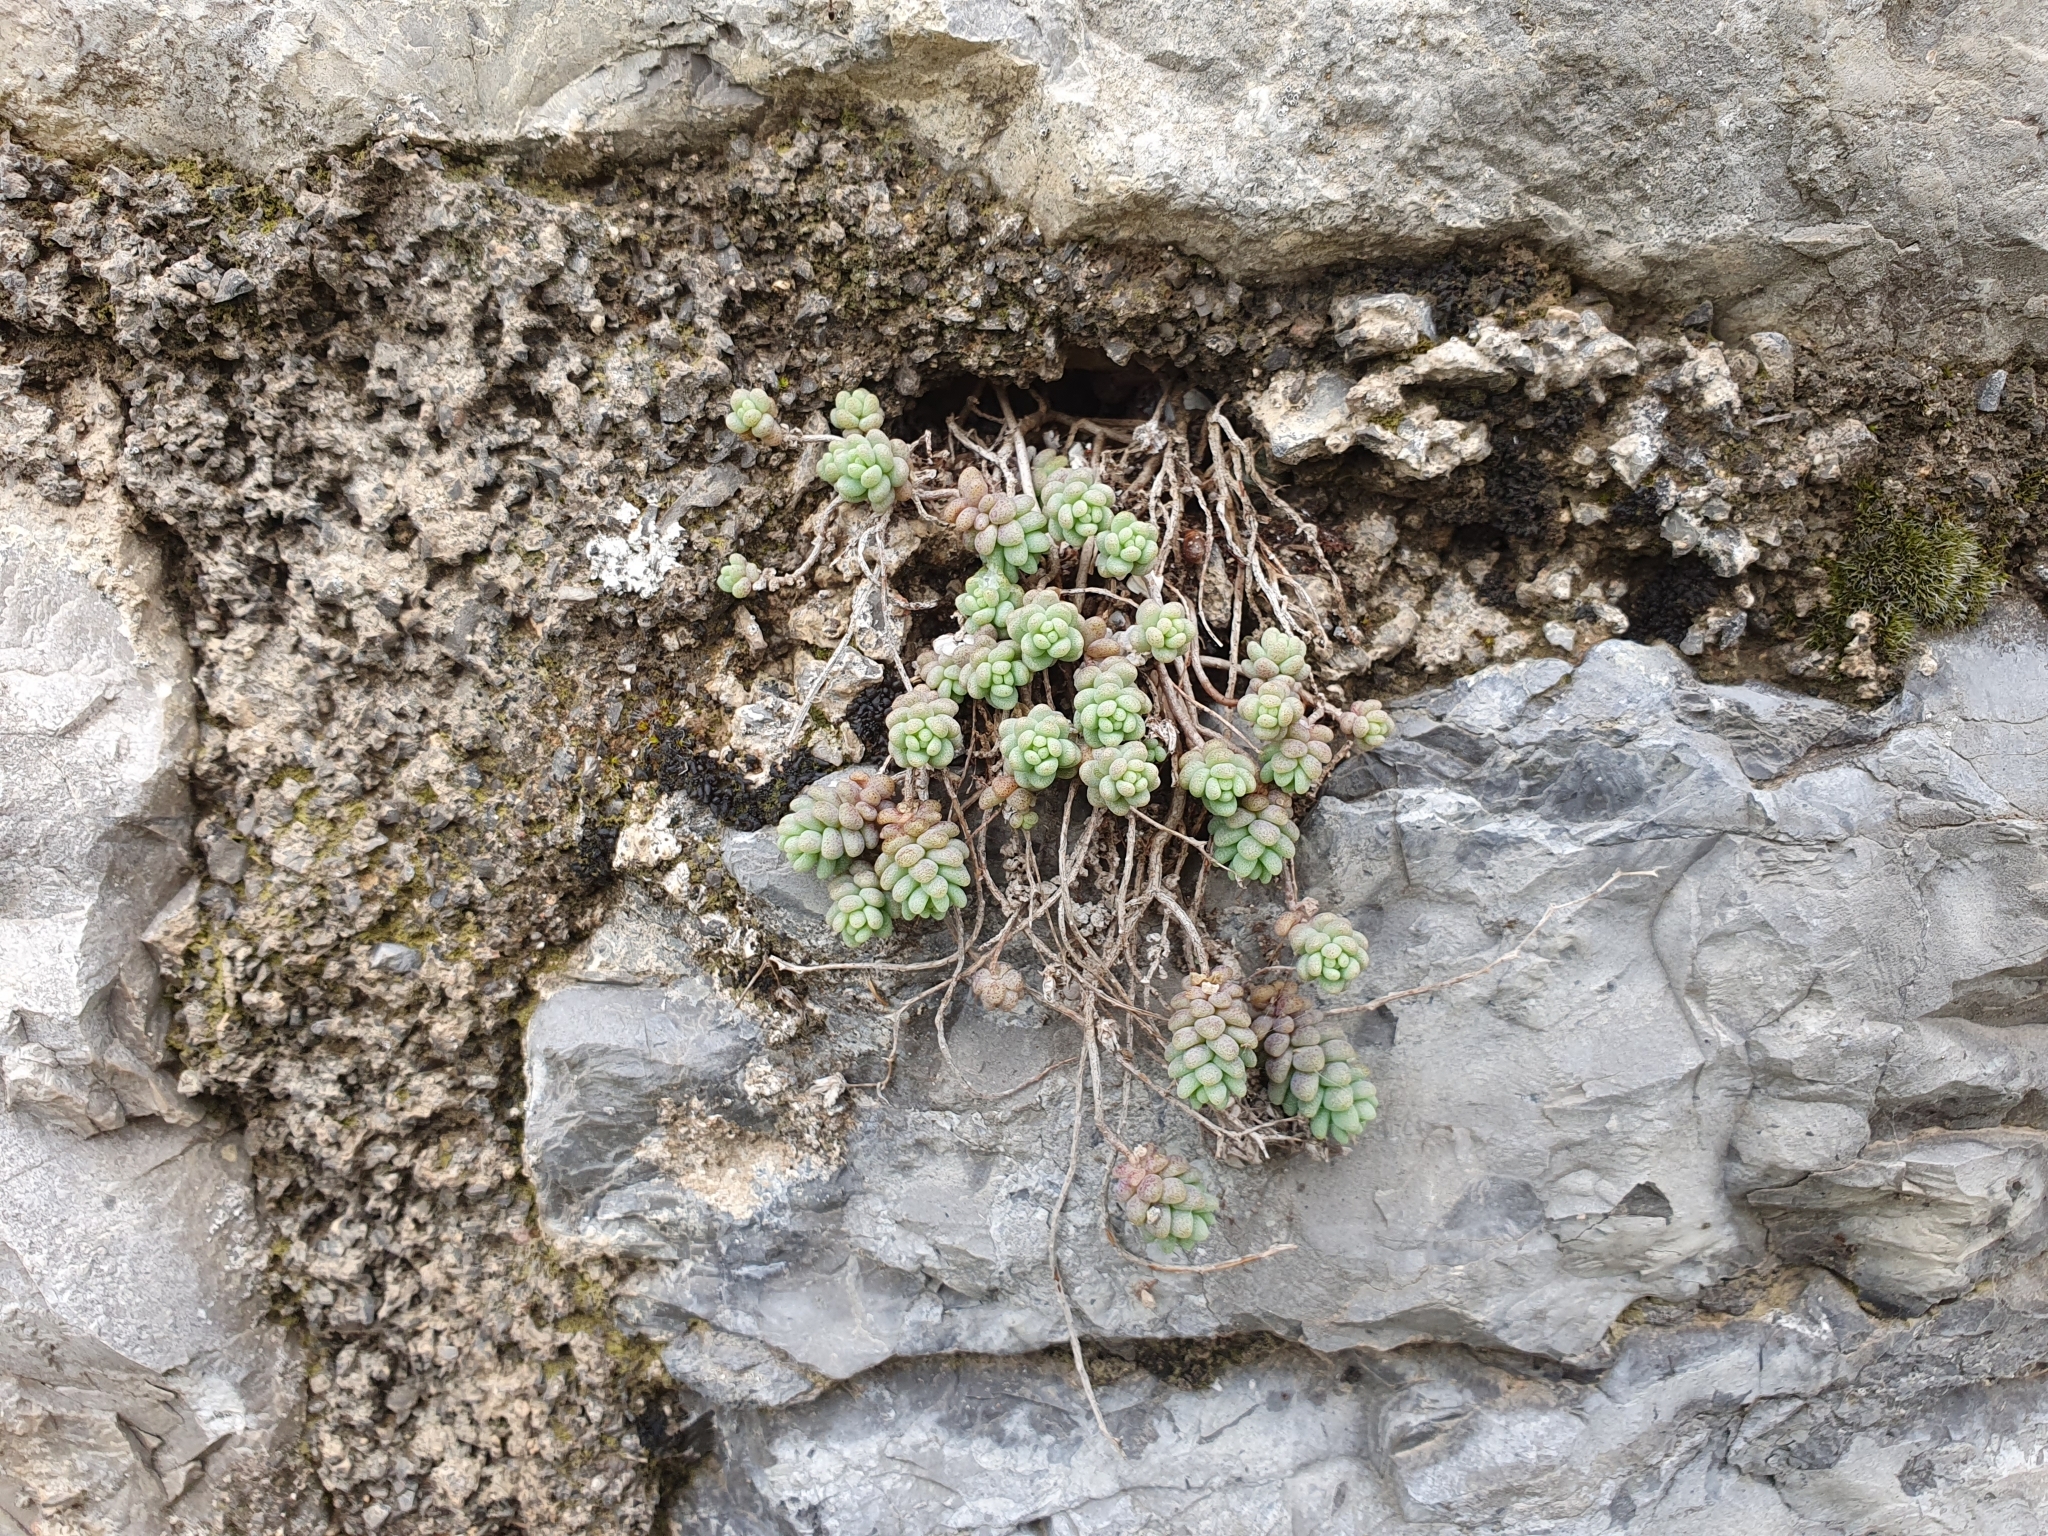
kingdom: Plantae
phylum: Tracheophyta
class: Magnoliopsida
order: Saxifragales
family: Crassulaceae
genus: Sedum
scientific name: Sedum dasyphyllum
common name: Thick-leaf stonecrop
